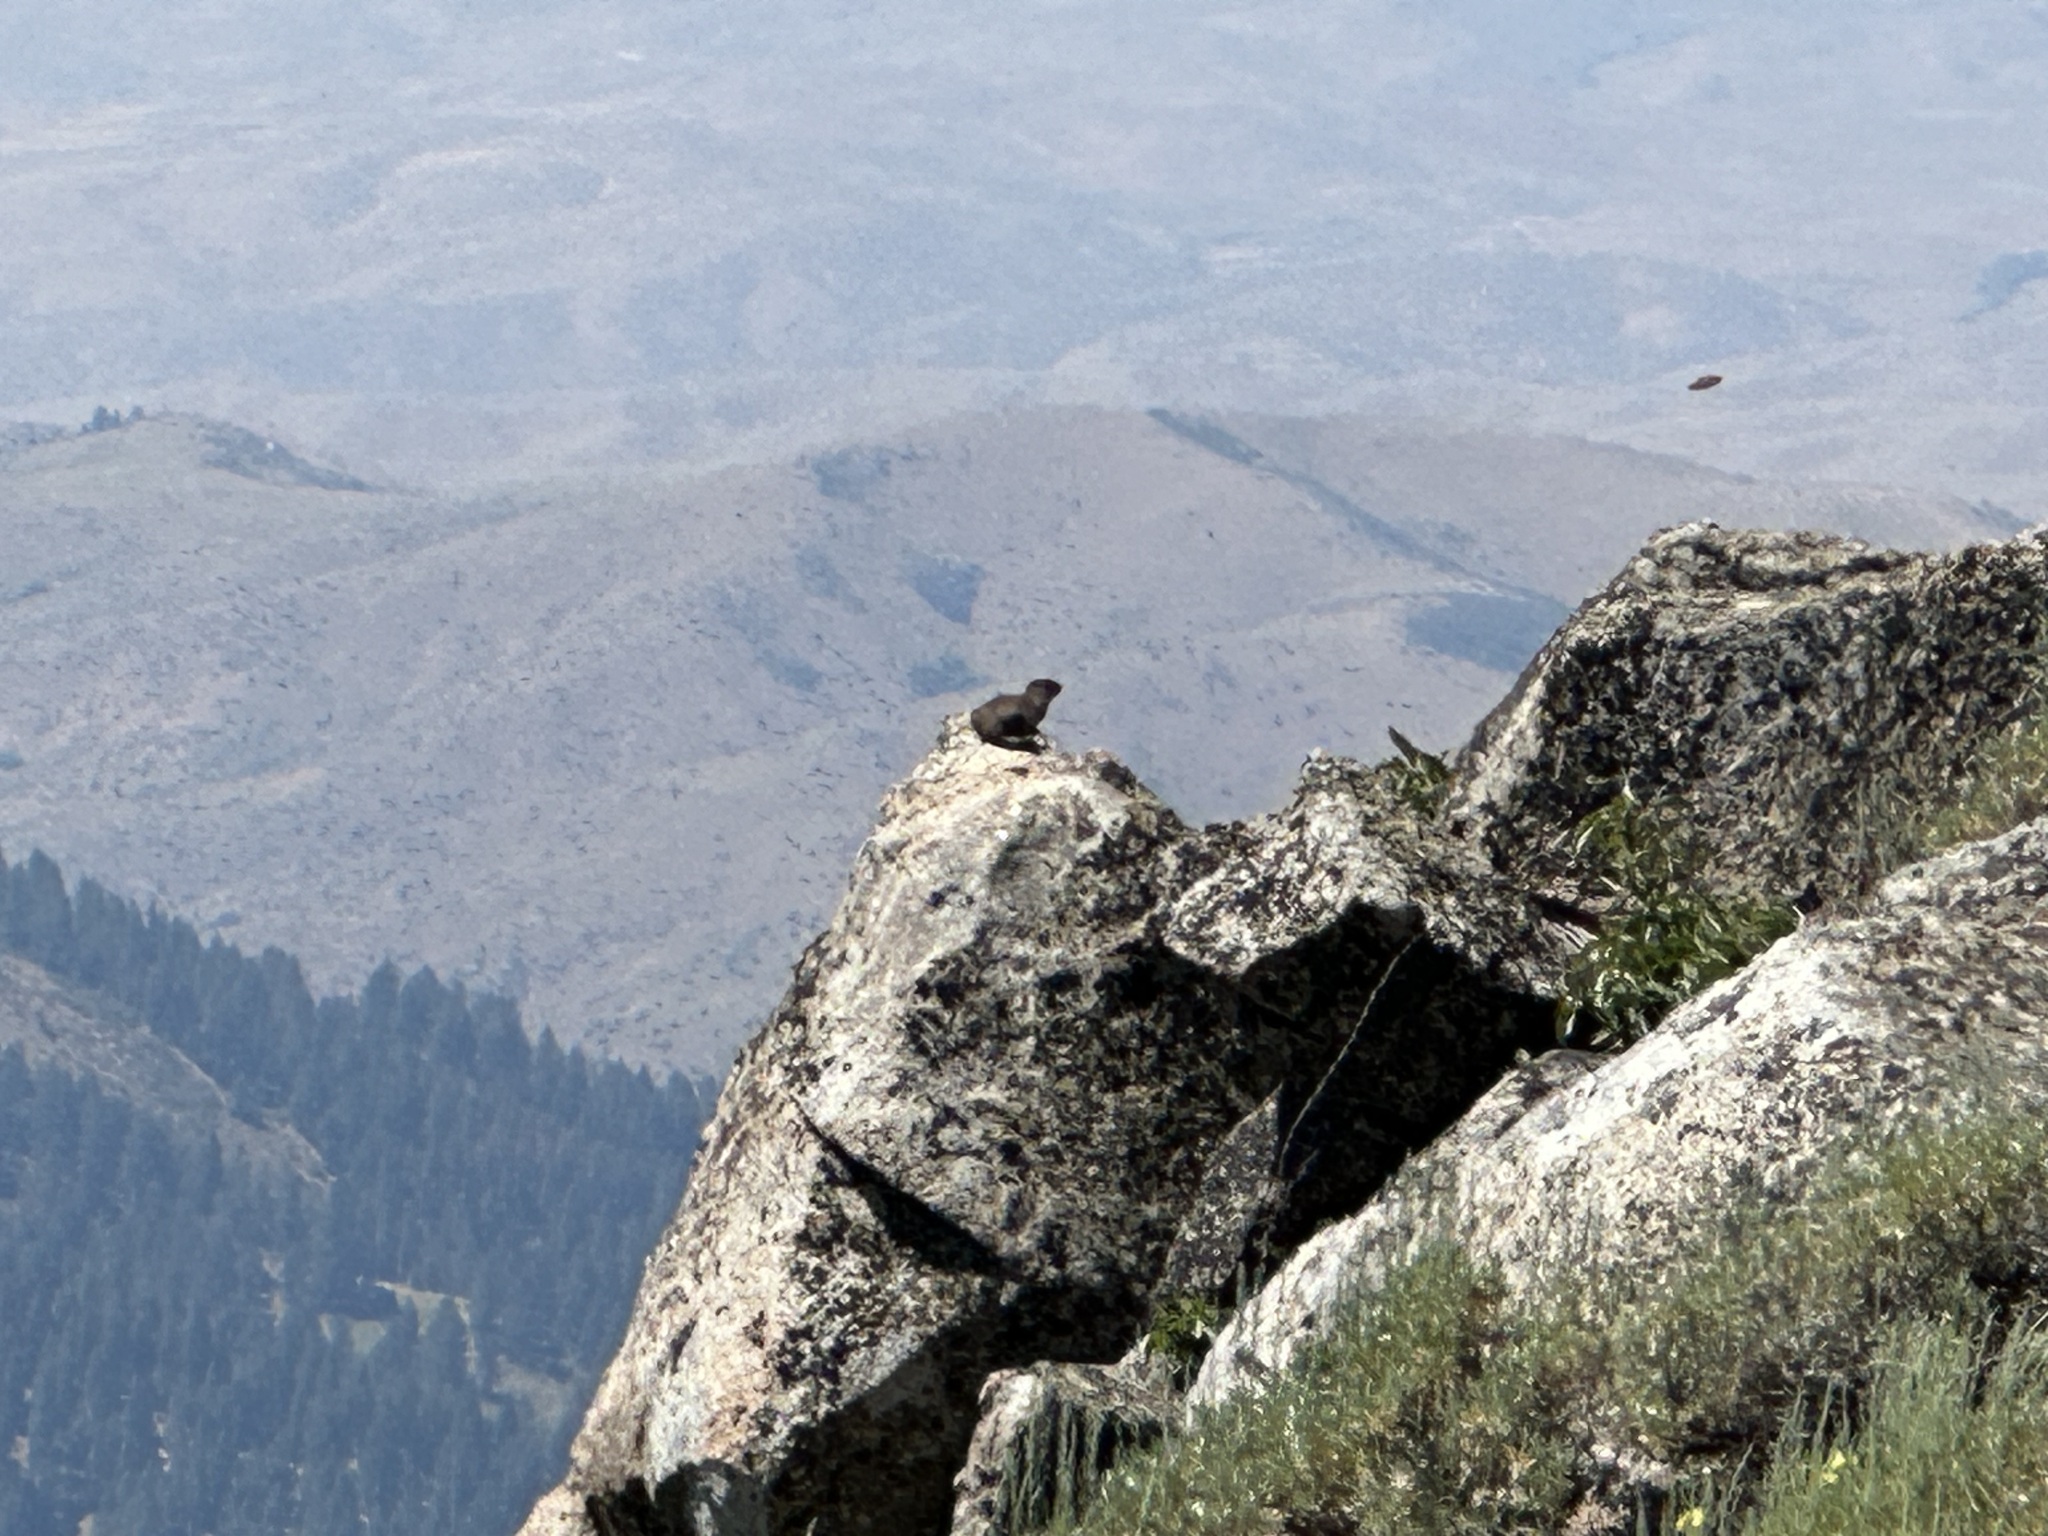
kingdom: Animalia
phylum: Chordata
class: Mammalia
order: Rodentia
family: Sciuridae
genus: Marmota
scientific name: Marmota flaviventris
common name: Yellow-bellied marmot
